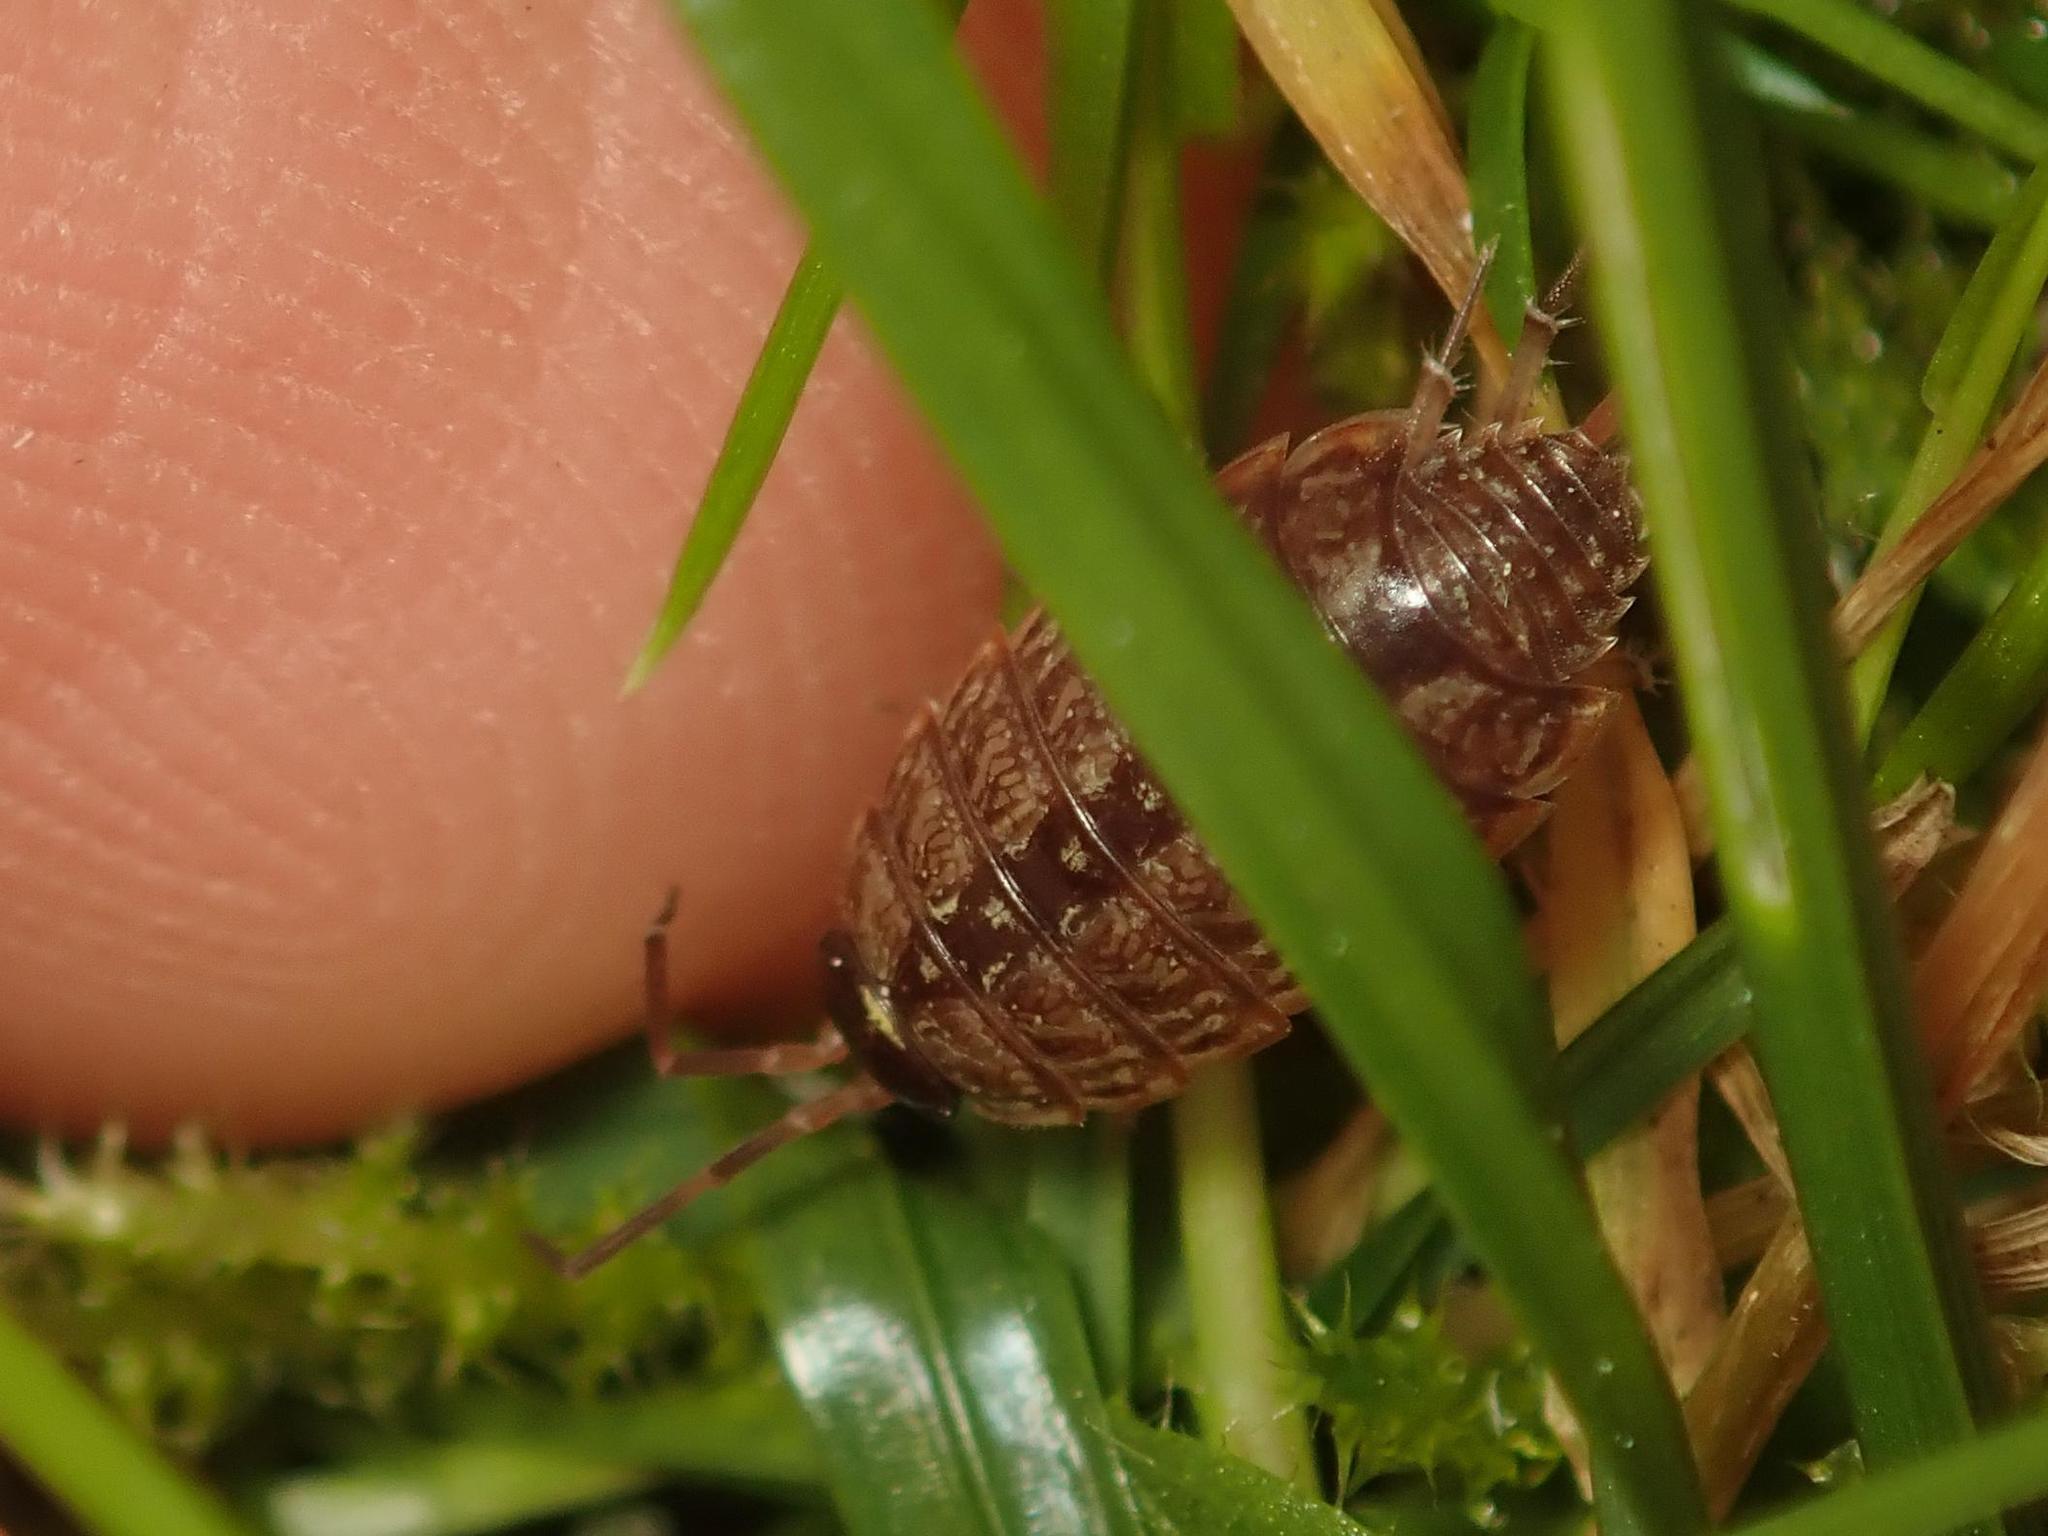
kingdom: Animalia
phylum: Arthropoda
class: Malacostraca
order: Isopoda
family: Philosciidae
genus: Philoscia
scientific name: Philoscia muscorum
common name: Common striped woodlouse
